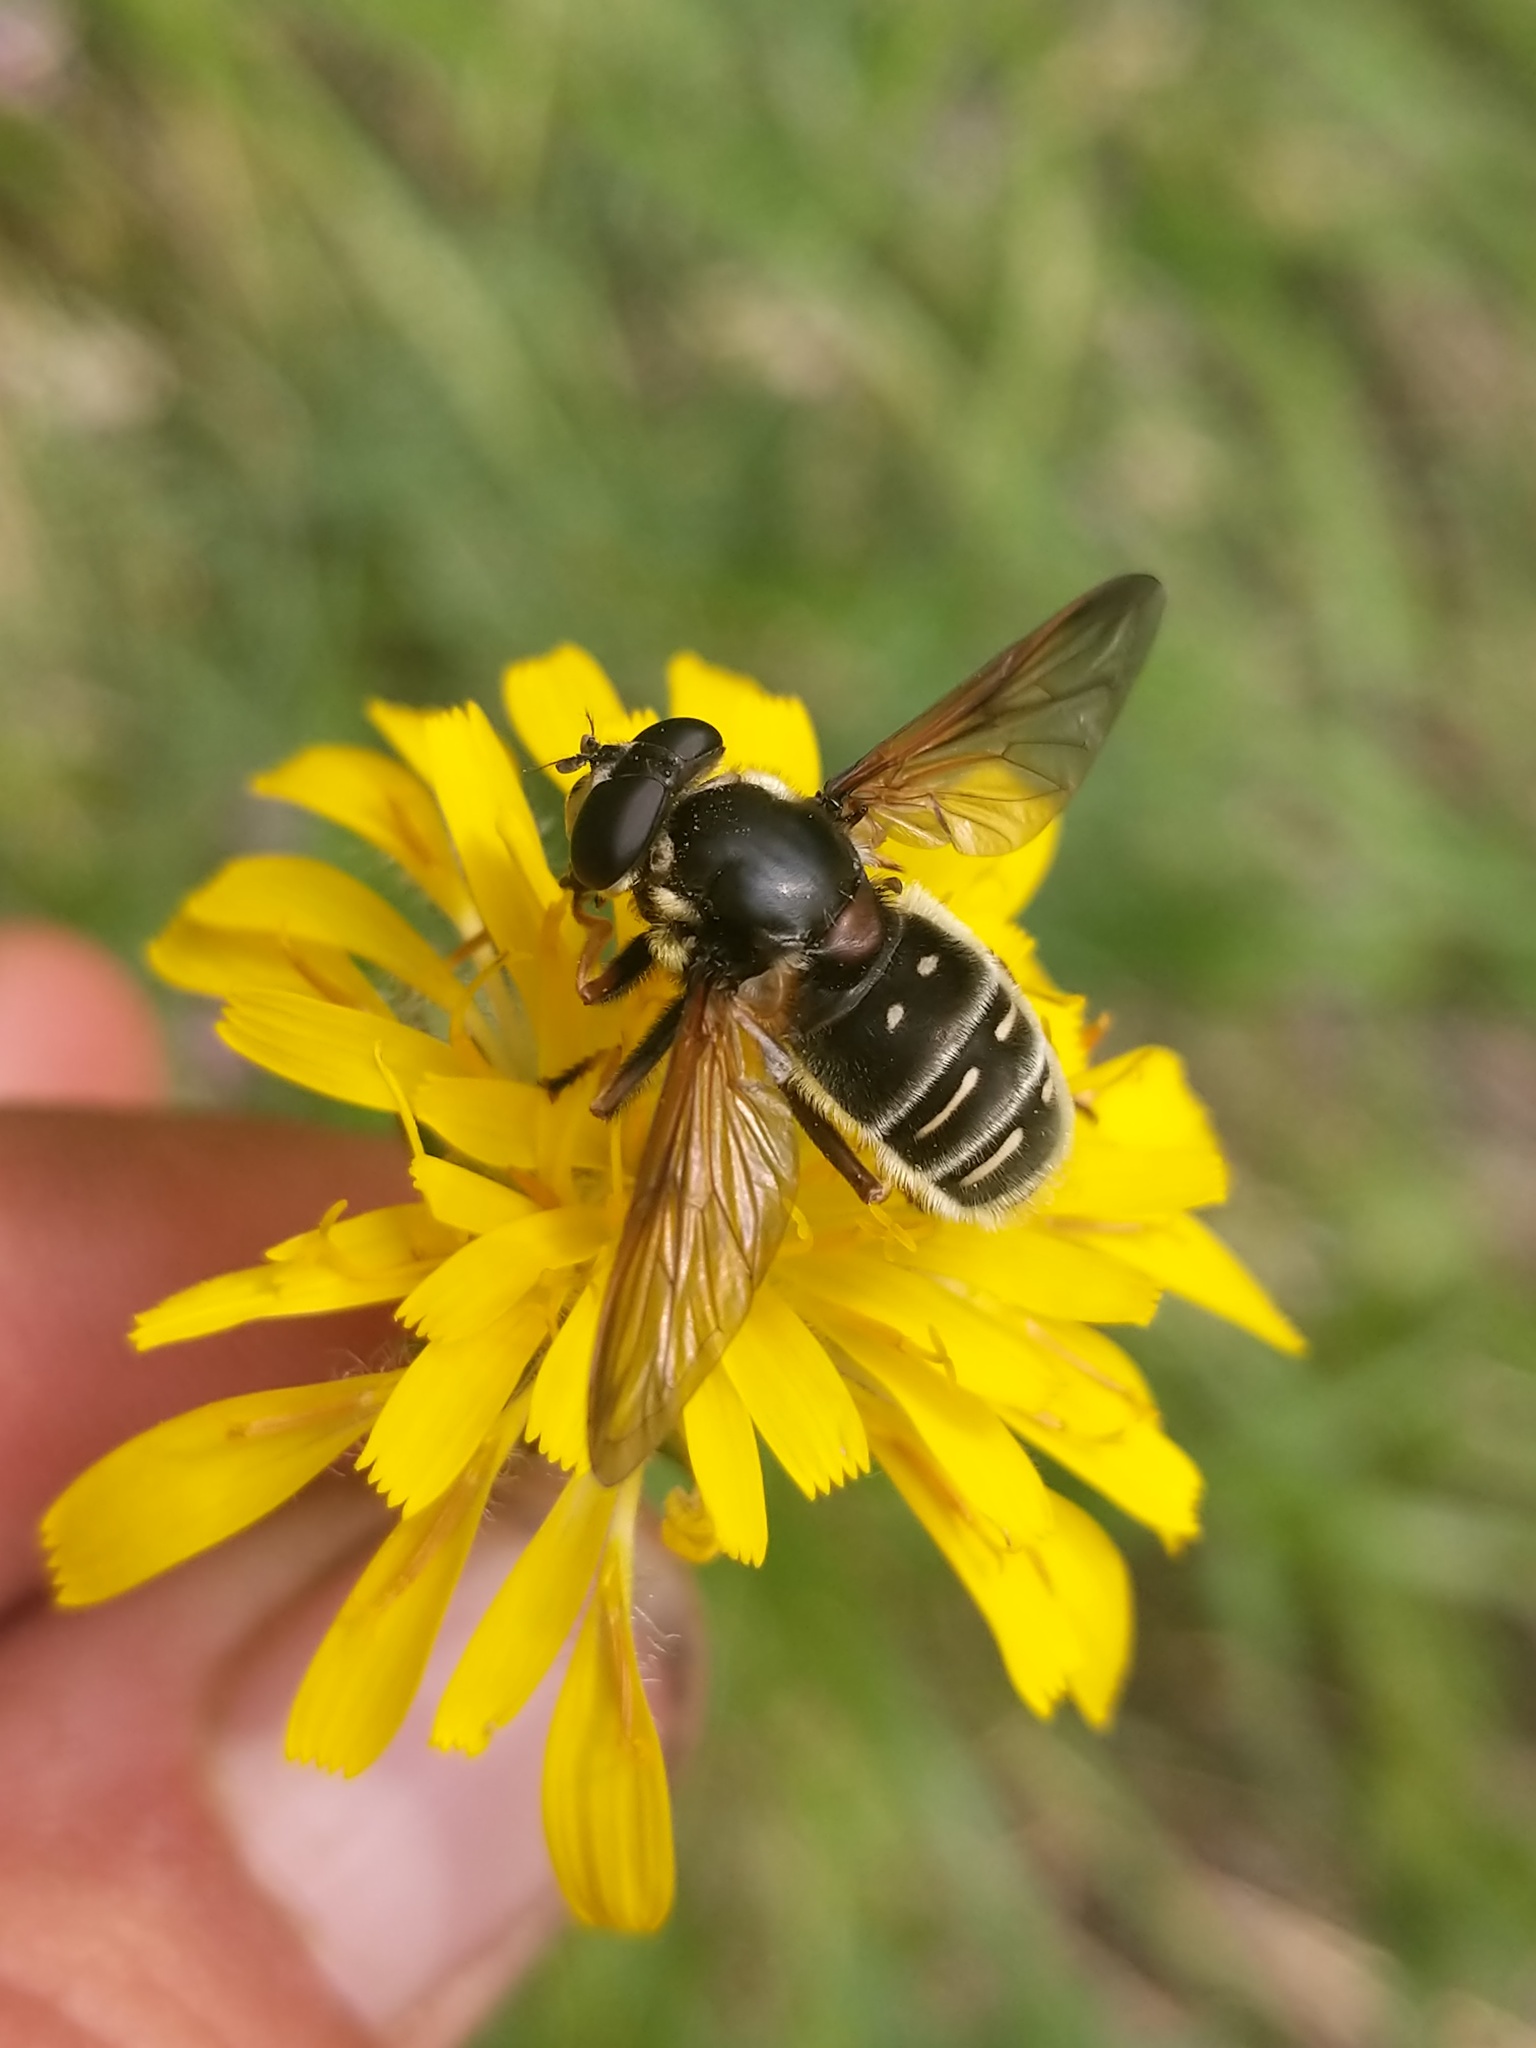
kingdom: Animalia
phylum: Arthropoda
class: Insecta
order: Diptera
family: Syrphidae
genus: Sericomyia
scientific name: Sericomyia militaris
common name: Narrow-banded pond fly
